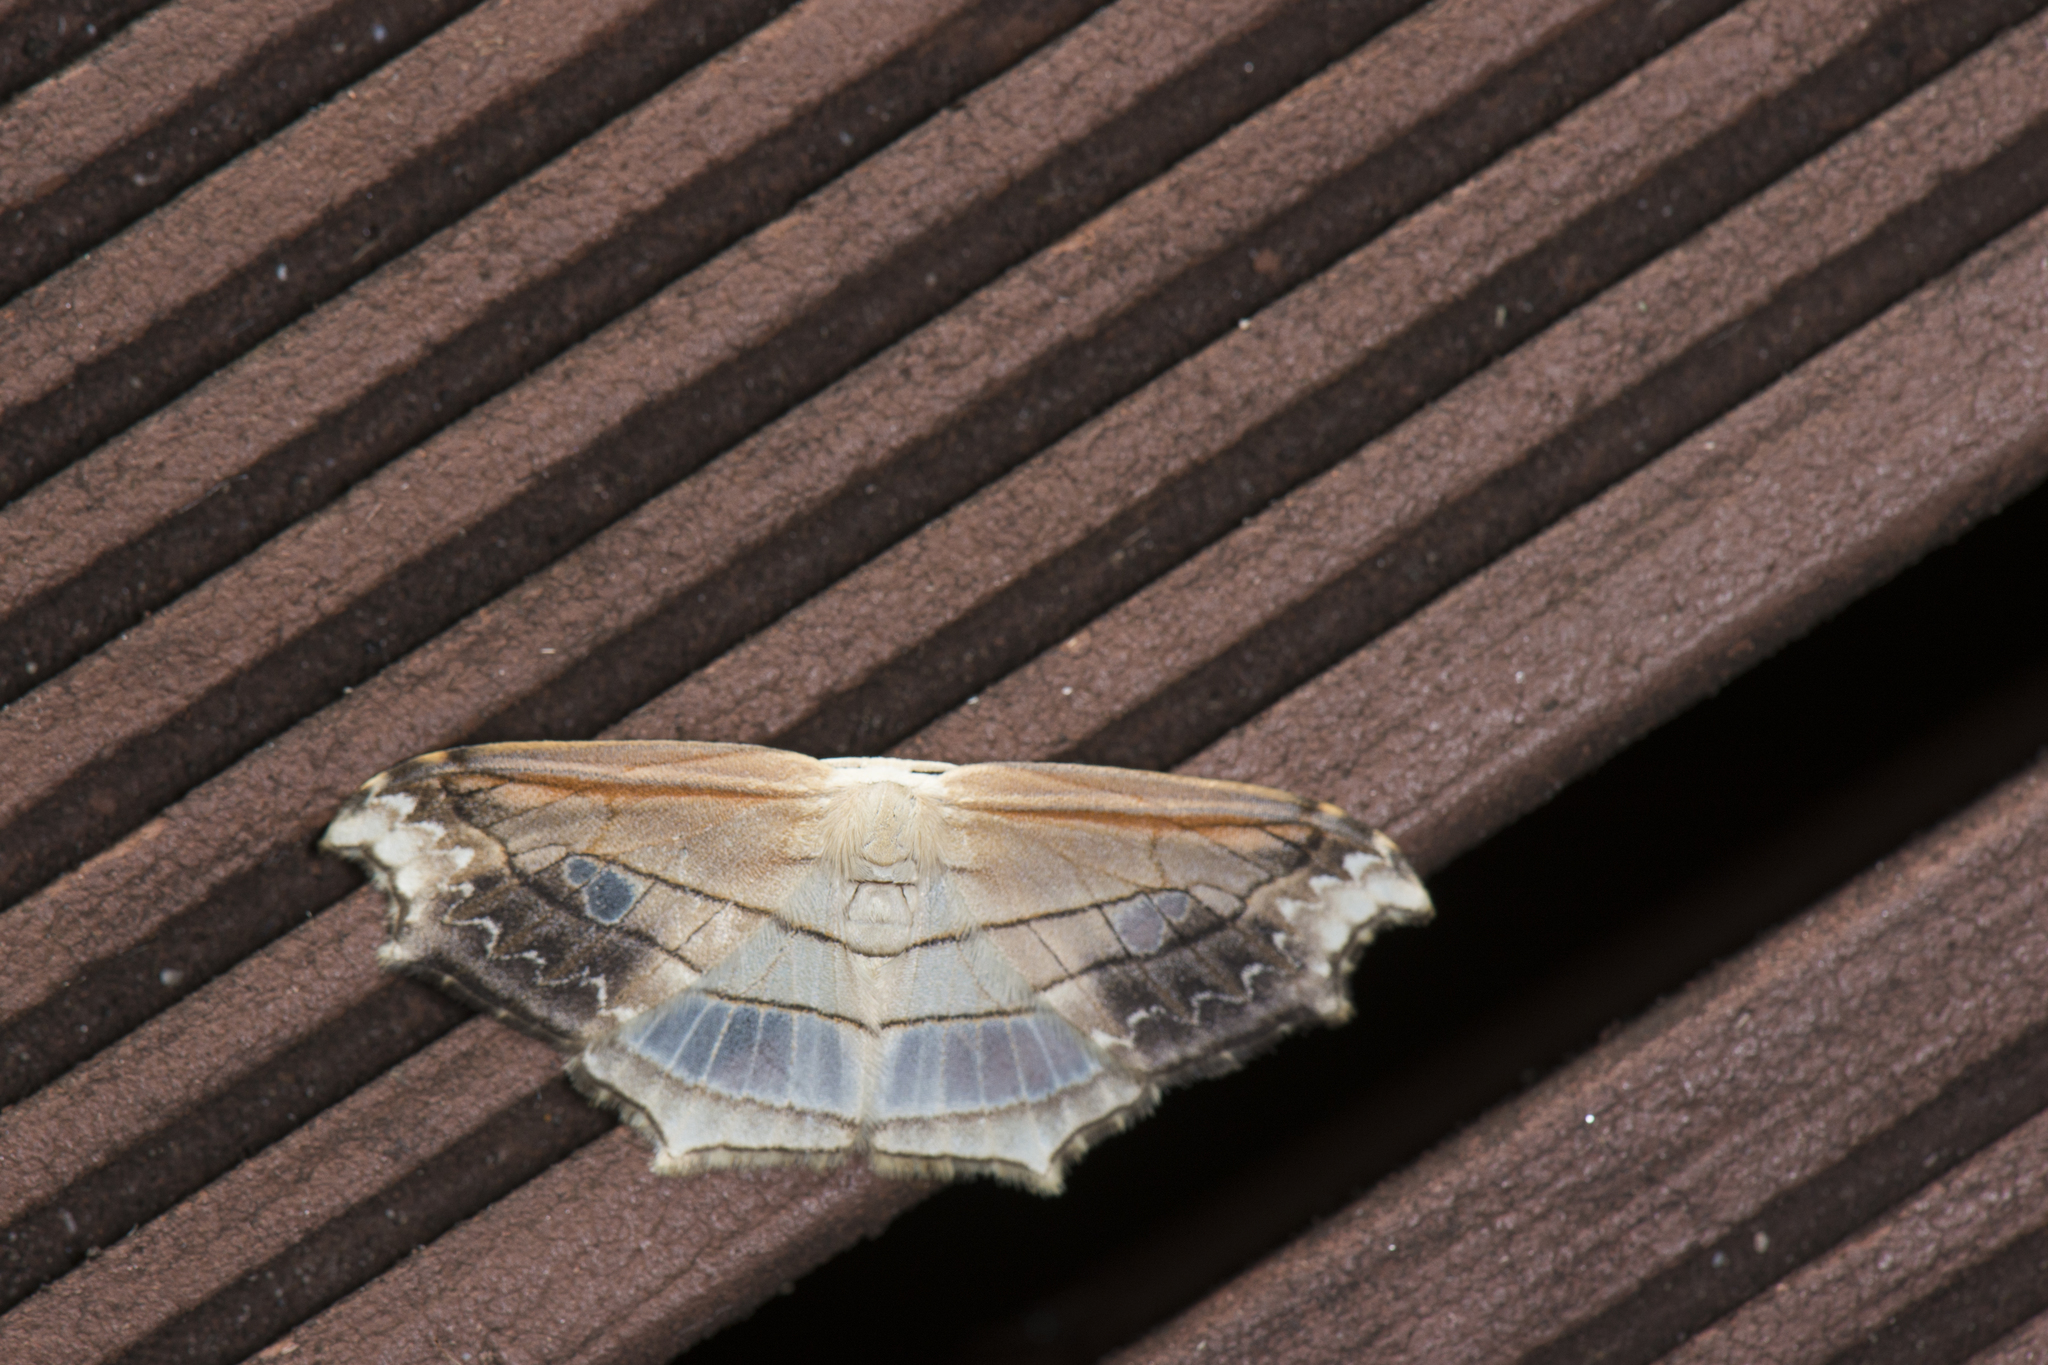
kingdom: Animalia
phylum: Arthropoda
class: Insecta
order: Lepidoptera
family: Drepanidae
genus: Leucoblepsis
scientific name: Leucoblepsis taiwanensis
